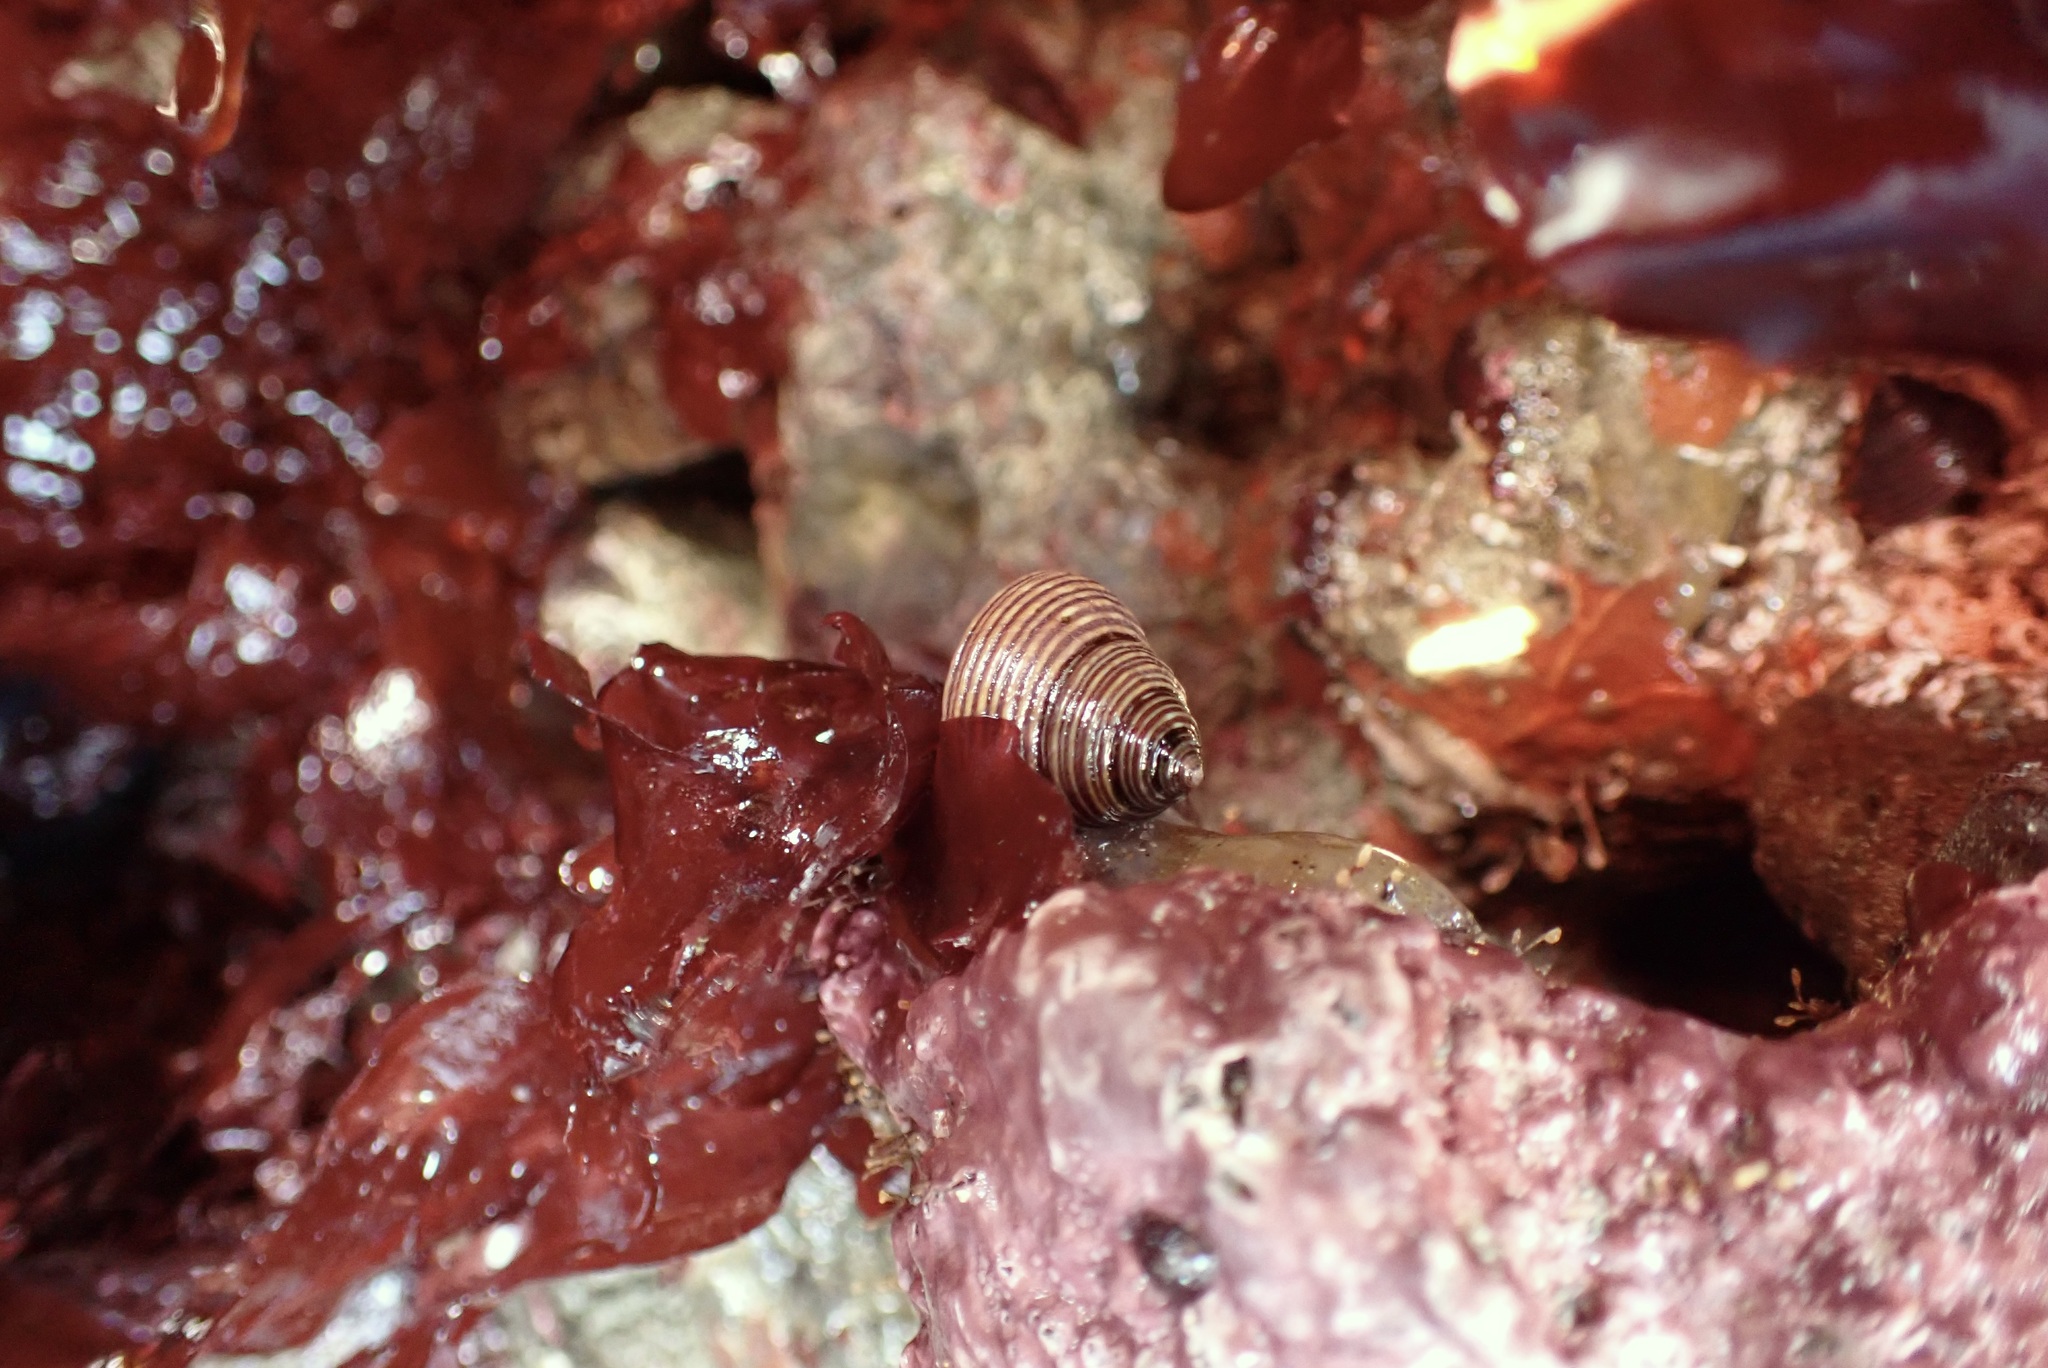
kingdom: Animalia
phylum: Mollusca
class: Gastropoda
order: Trochida
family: Calliostomatidae
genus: Calliostoma
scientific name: Calliostoma ligatum
